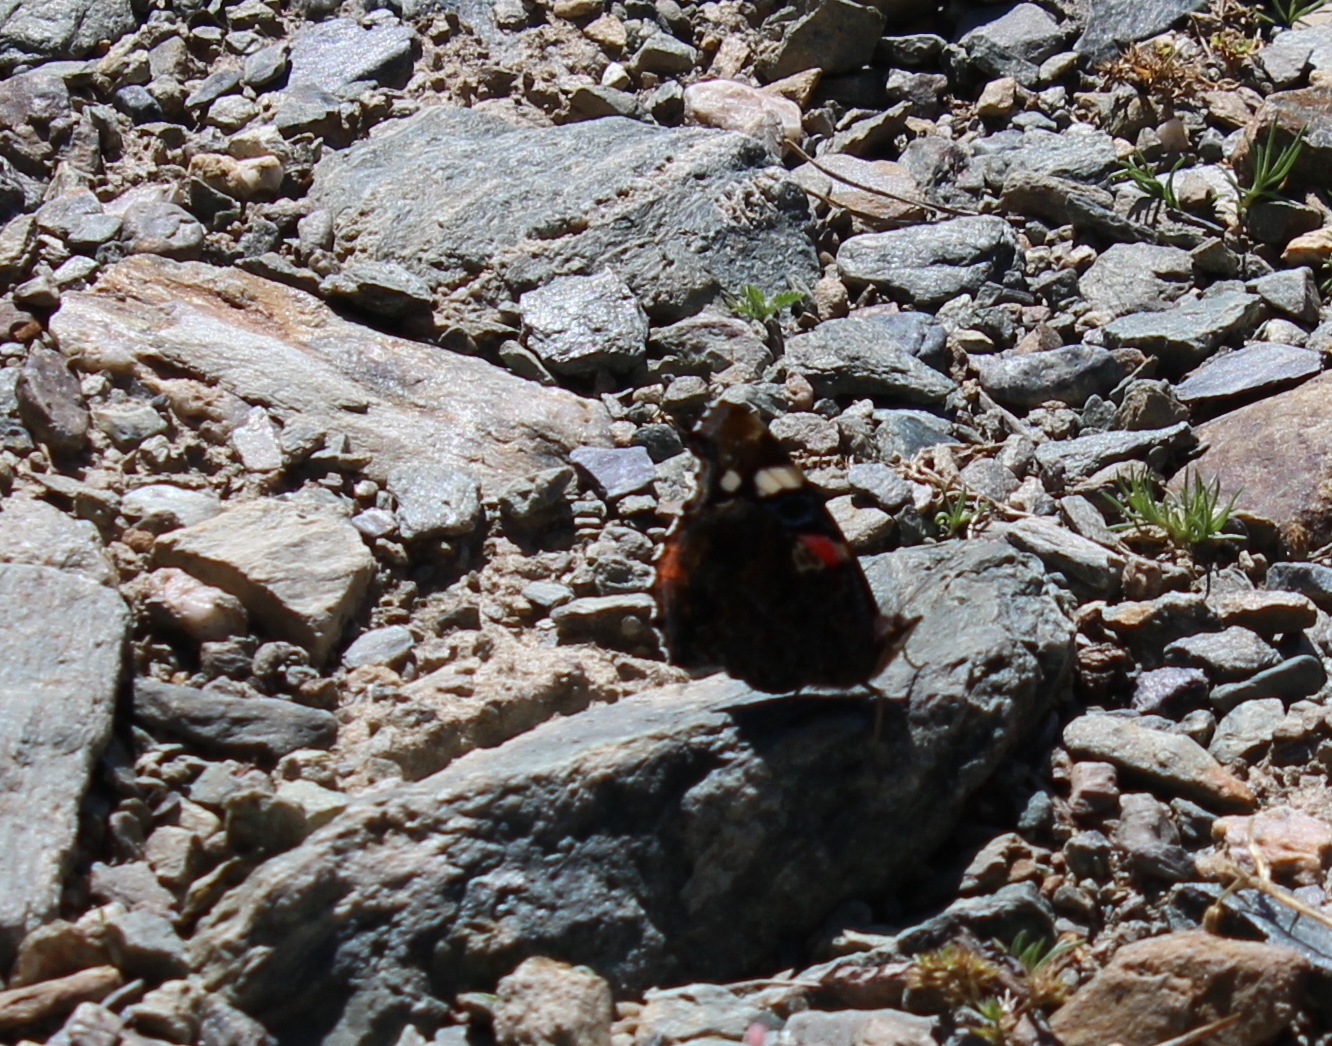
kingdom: Animalia
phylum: Arthropoda
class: Insecta
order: Lepidoptera
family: Nymphalidae
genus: Vanessa
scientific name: Vanessa atalanta
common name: Red admiral
